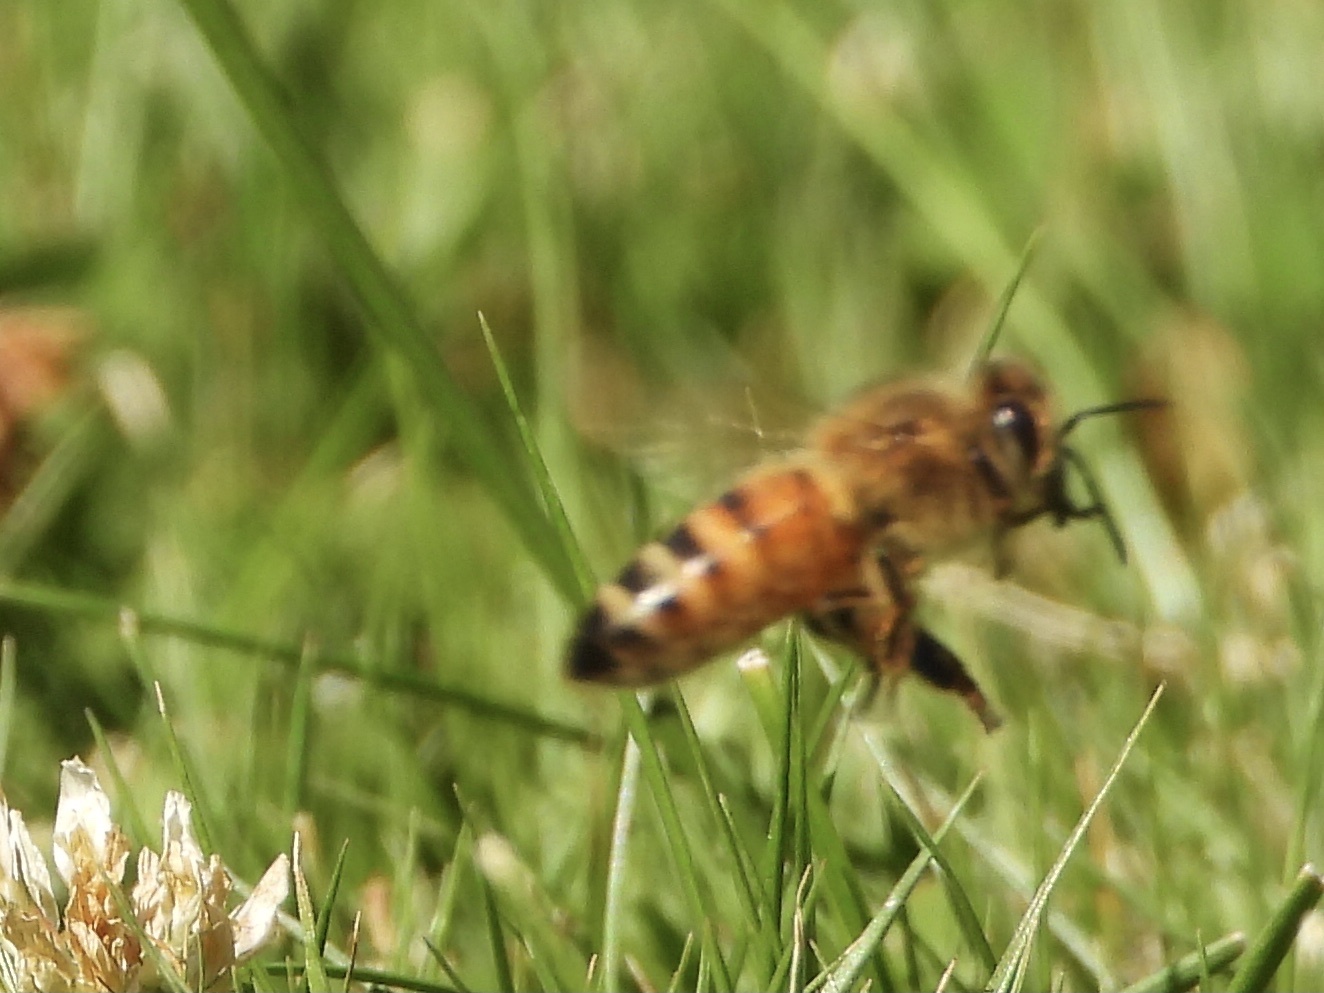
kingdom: Animalia
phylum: Arthropoda
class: Insecta
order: Hymenoptera
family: Apidae
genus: Apis
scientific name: Apis mellifera
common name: Honey bee
